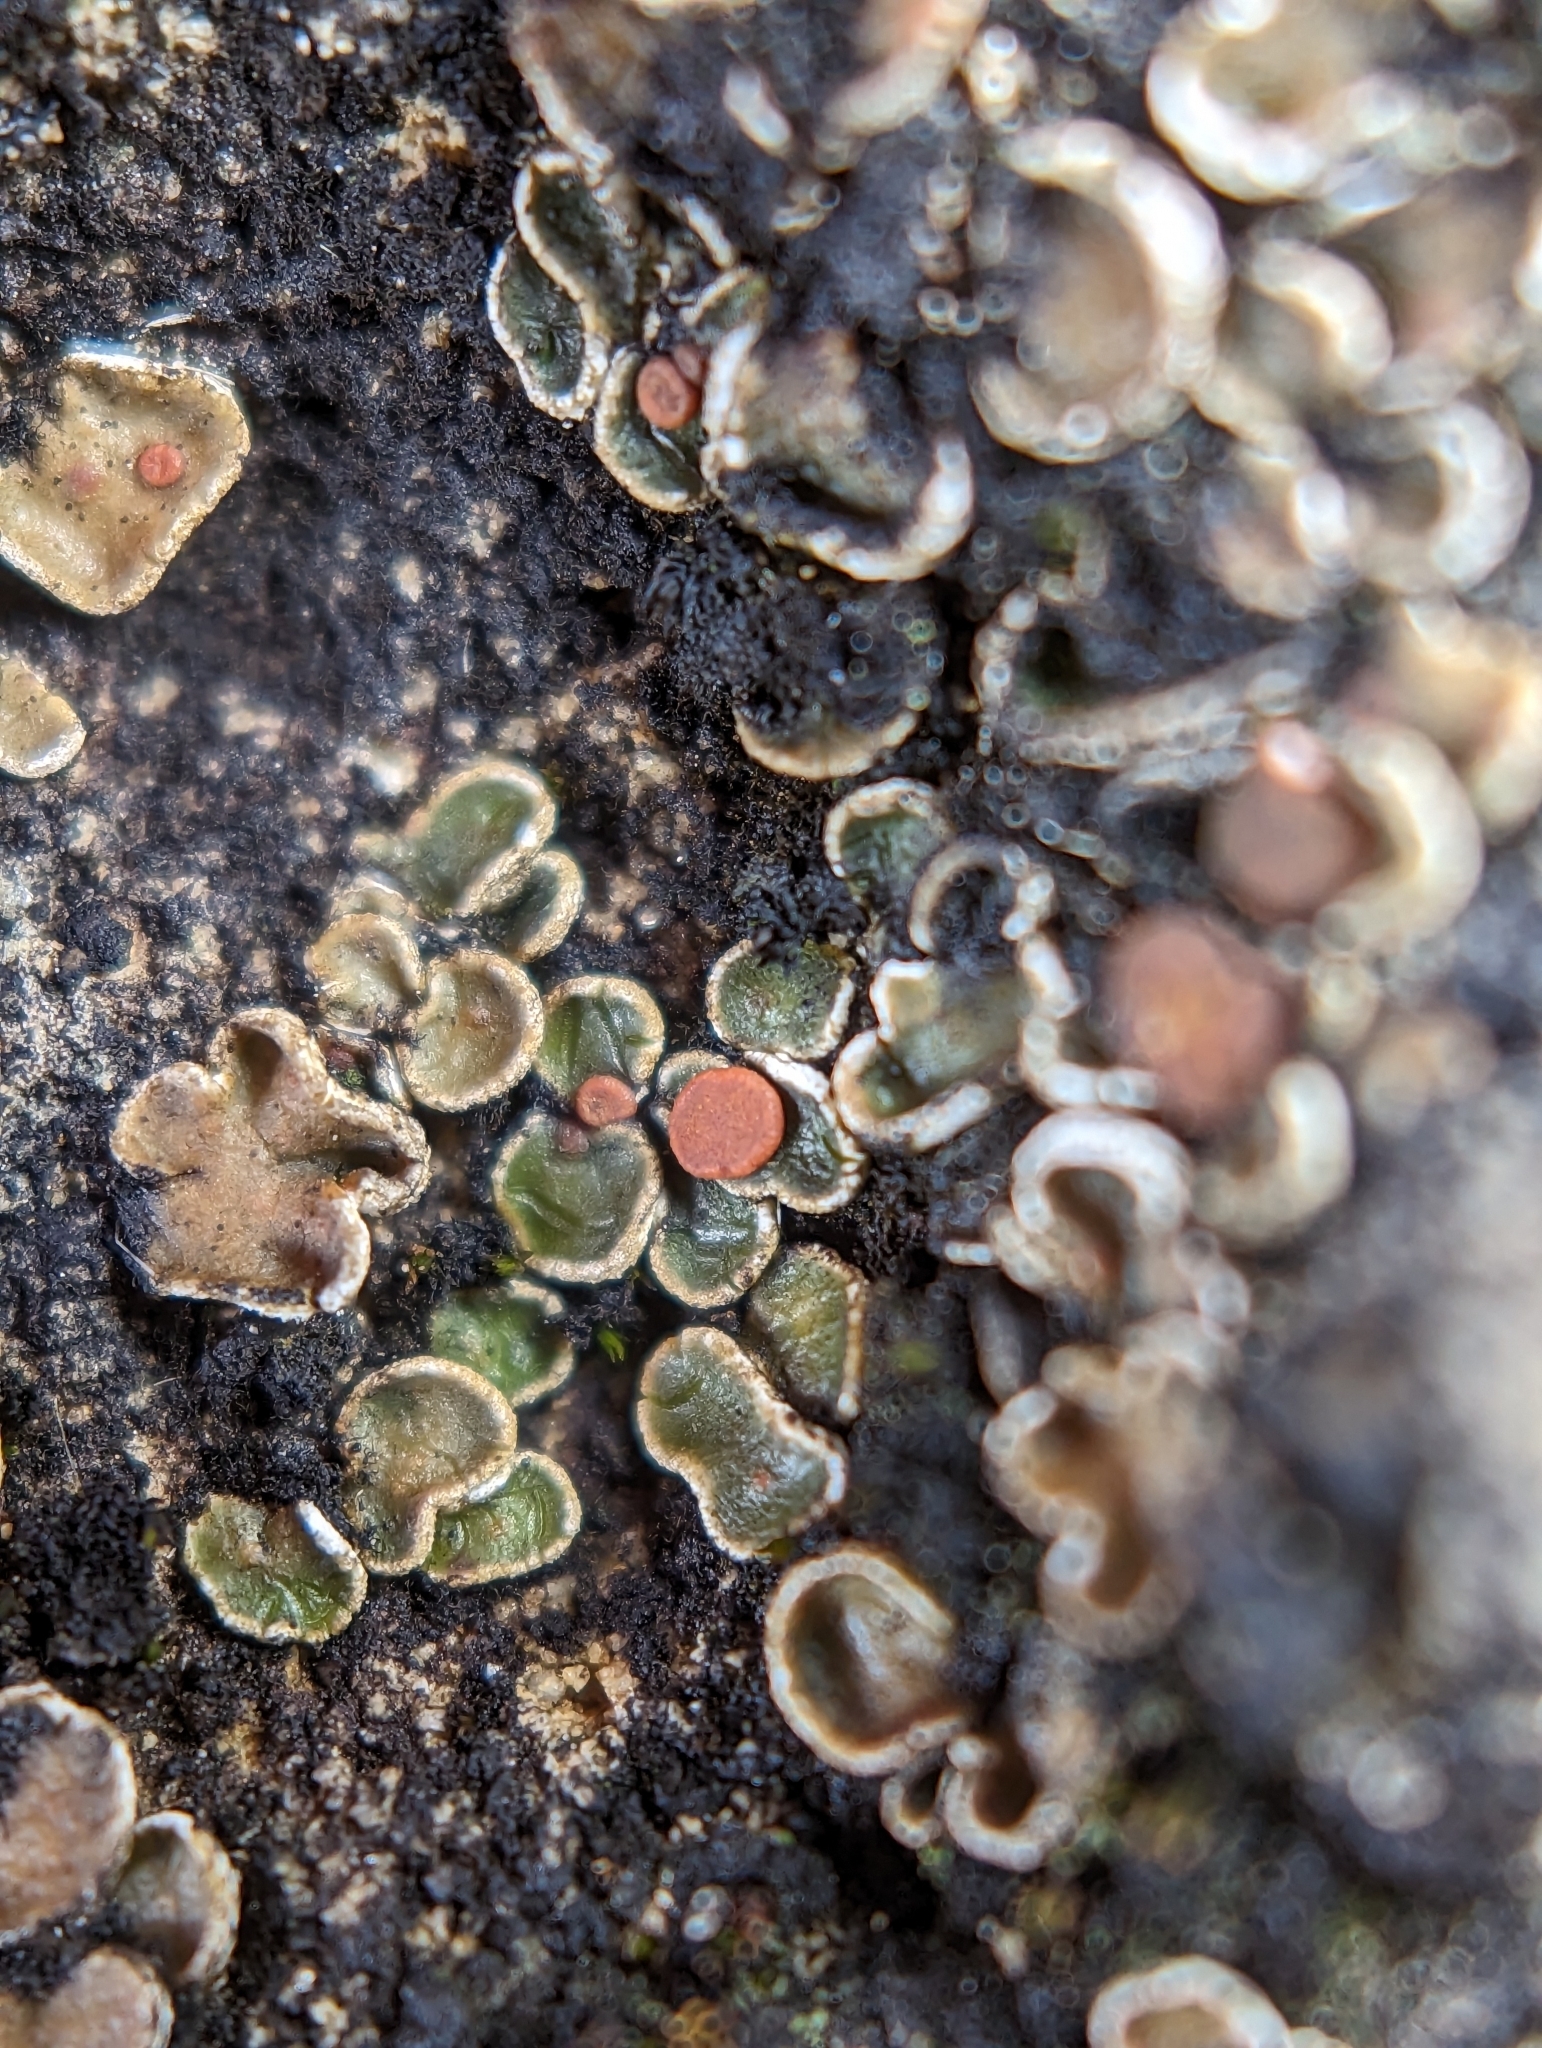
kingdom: Fungi
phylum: Ascomycota
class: Lecanoromycetes
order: Lecanorales
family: Psoraceae
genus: Psora
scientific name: Psora pseudorussellii
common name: Bordered scale lichen
